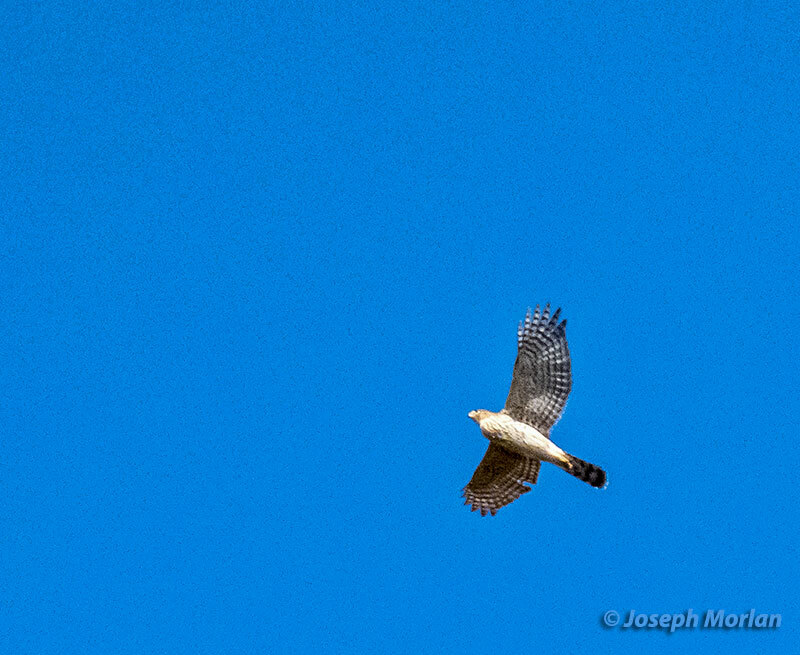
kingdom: Animalia
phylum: Chordata
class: Aves
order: Accipitriformes
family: Accipitridae
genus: Accipiter
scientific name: Accipiter cooperii
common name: Cooper's hawk
